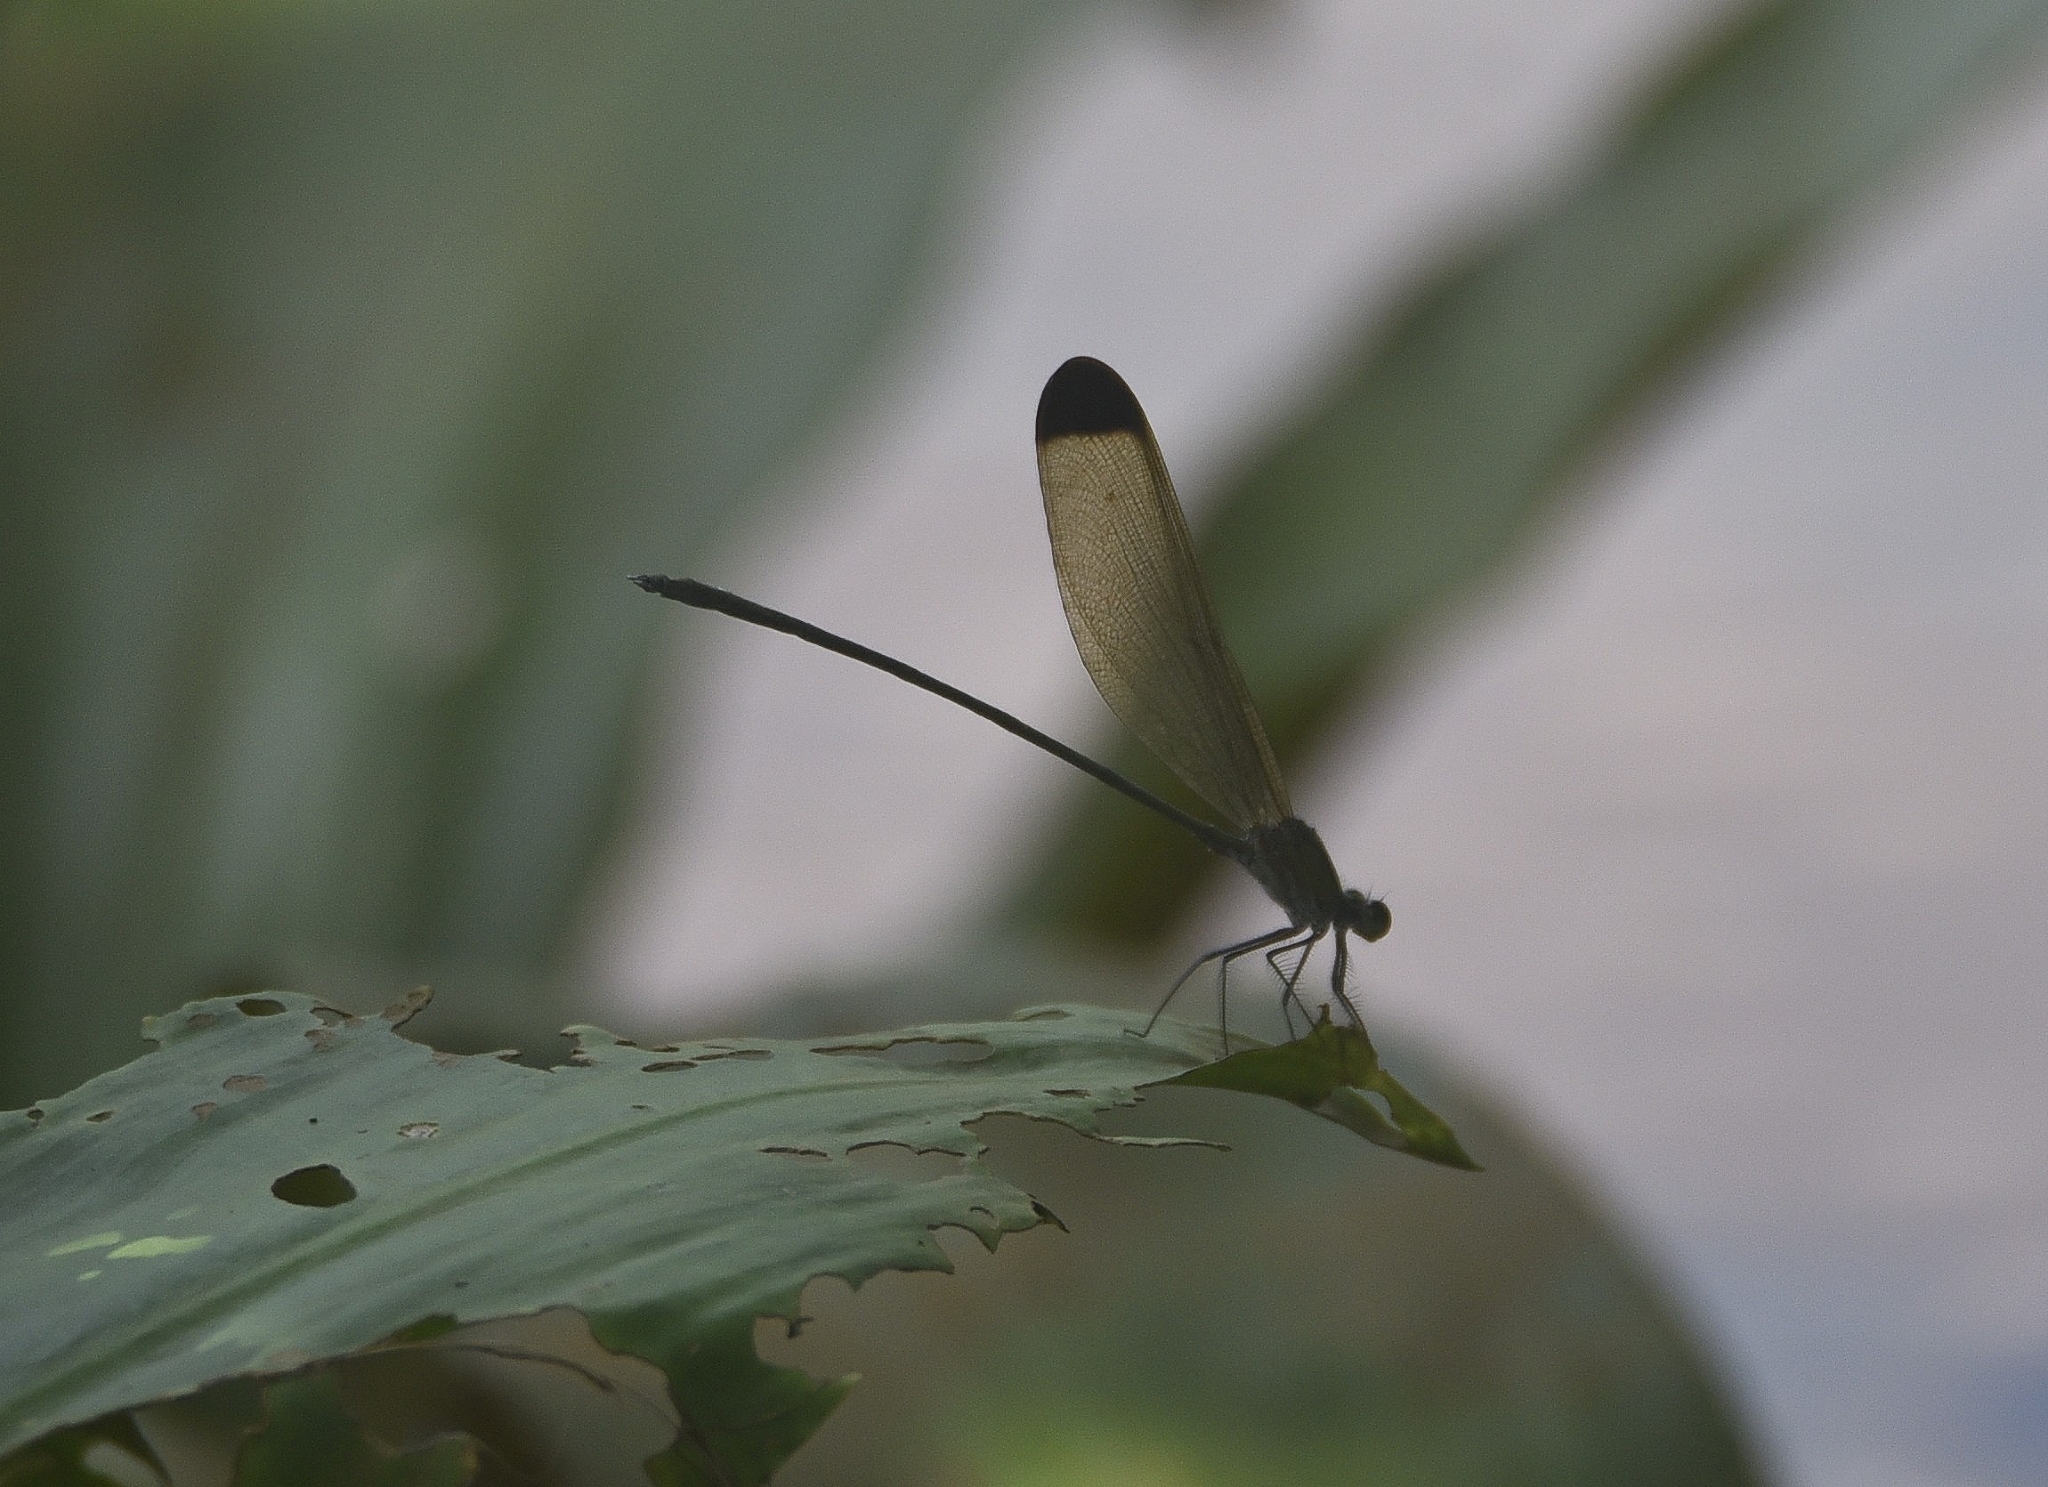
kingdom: Animalia
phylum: Arthropoda
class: Insecta
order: Odonata
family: Calopterygidae
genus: Vestalis
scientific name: Vestalis apicalis
